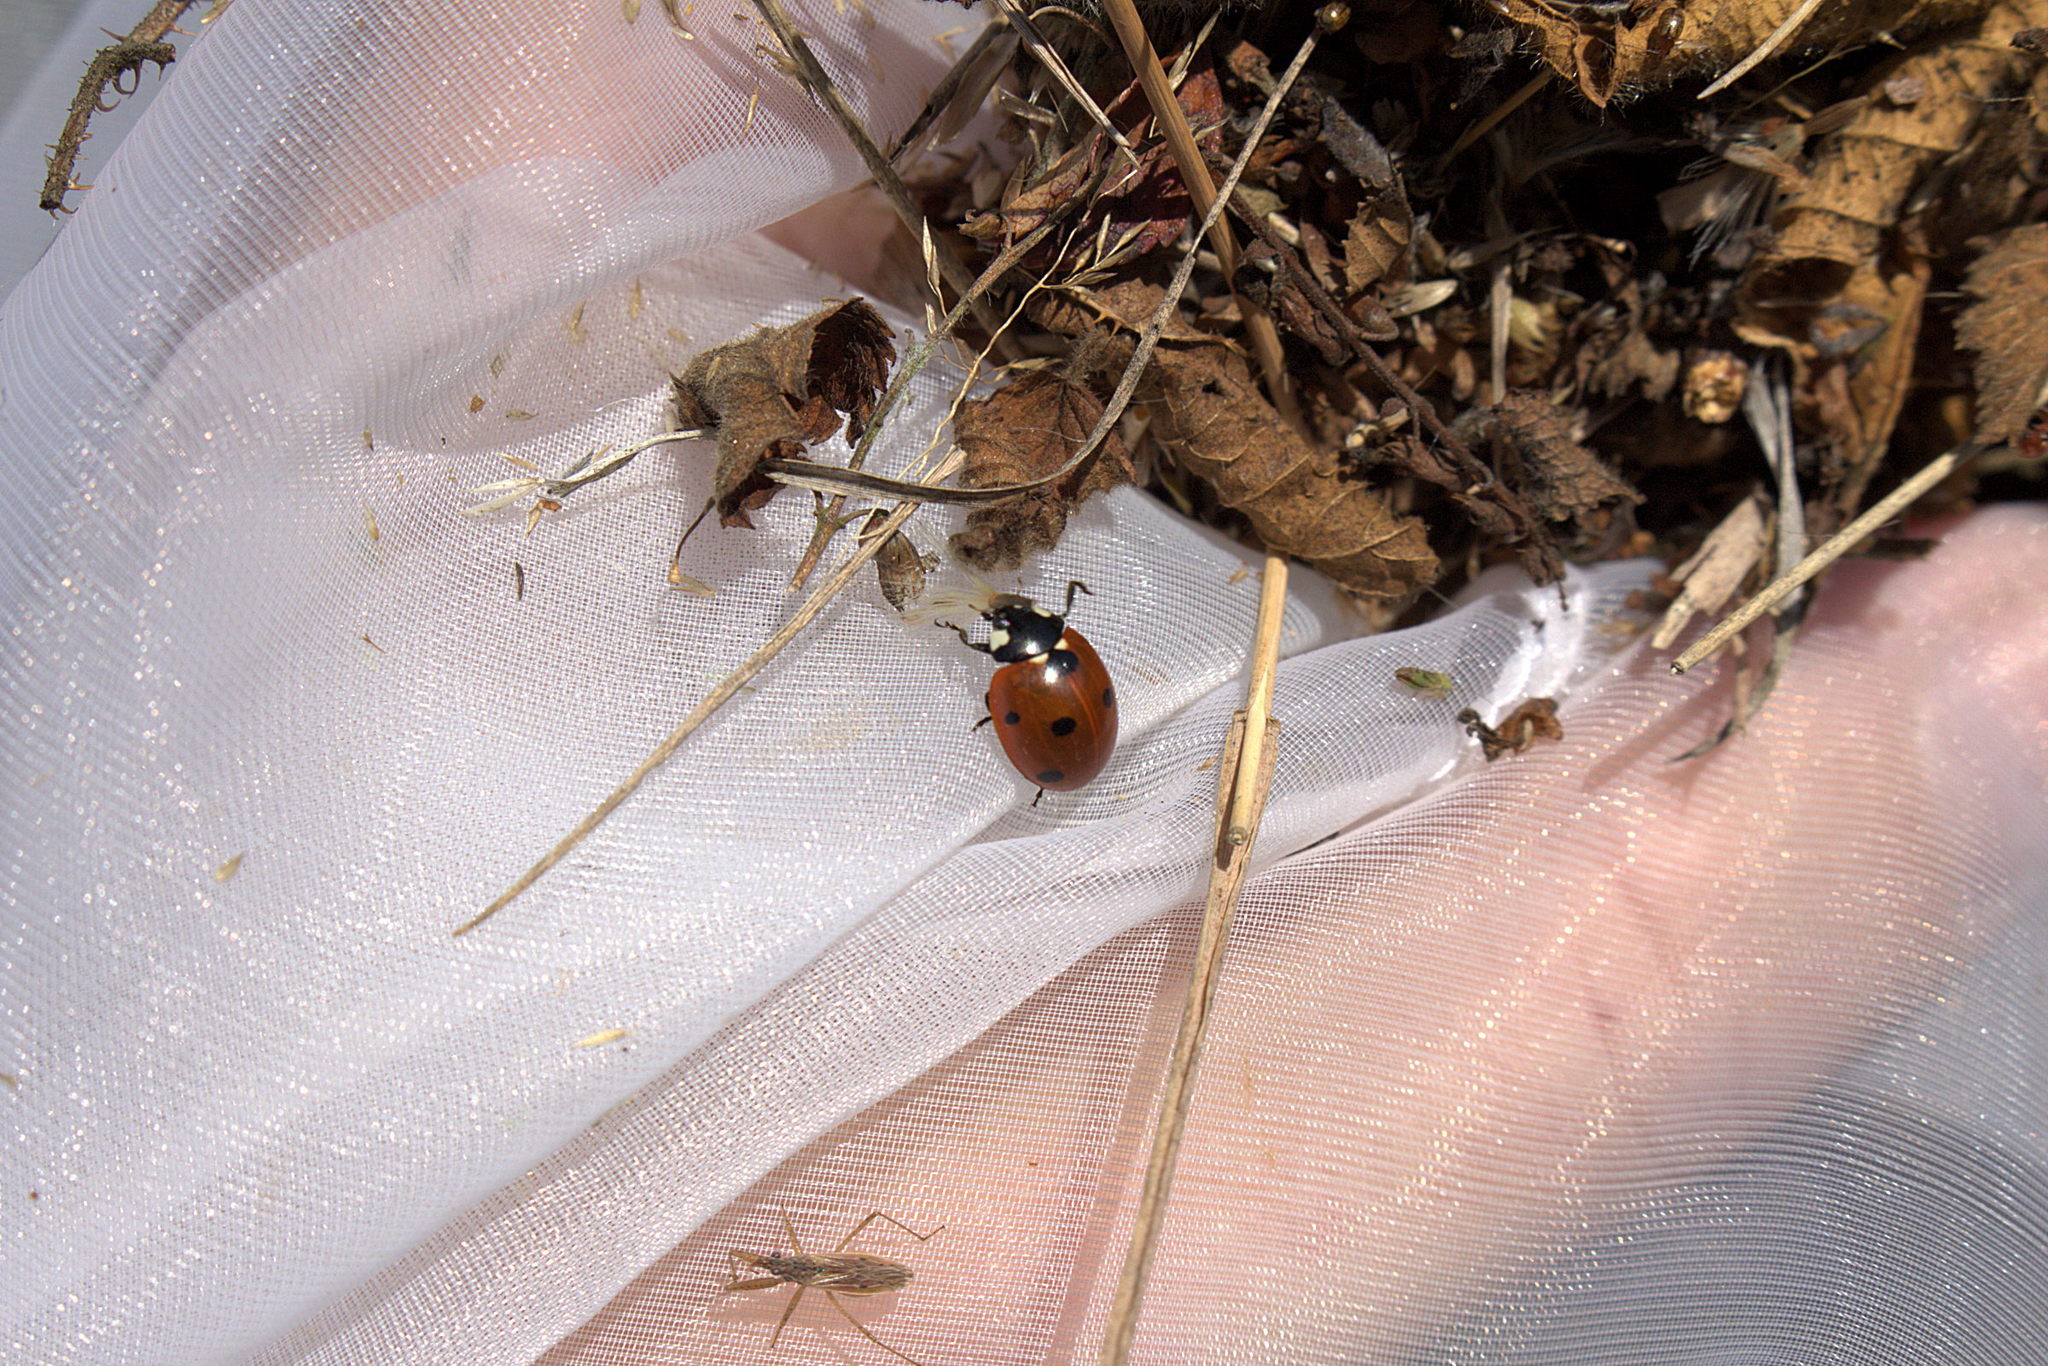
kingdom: Animalia
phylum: Arthropoda
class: Insecta
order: Coleoptera
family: Coccinellidae
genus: Coccinella
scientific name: Coccinella septempunctata
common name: Sevenspotted lady beetle
